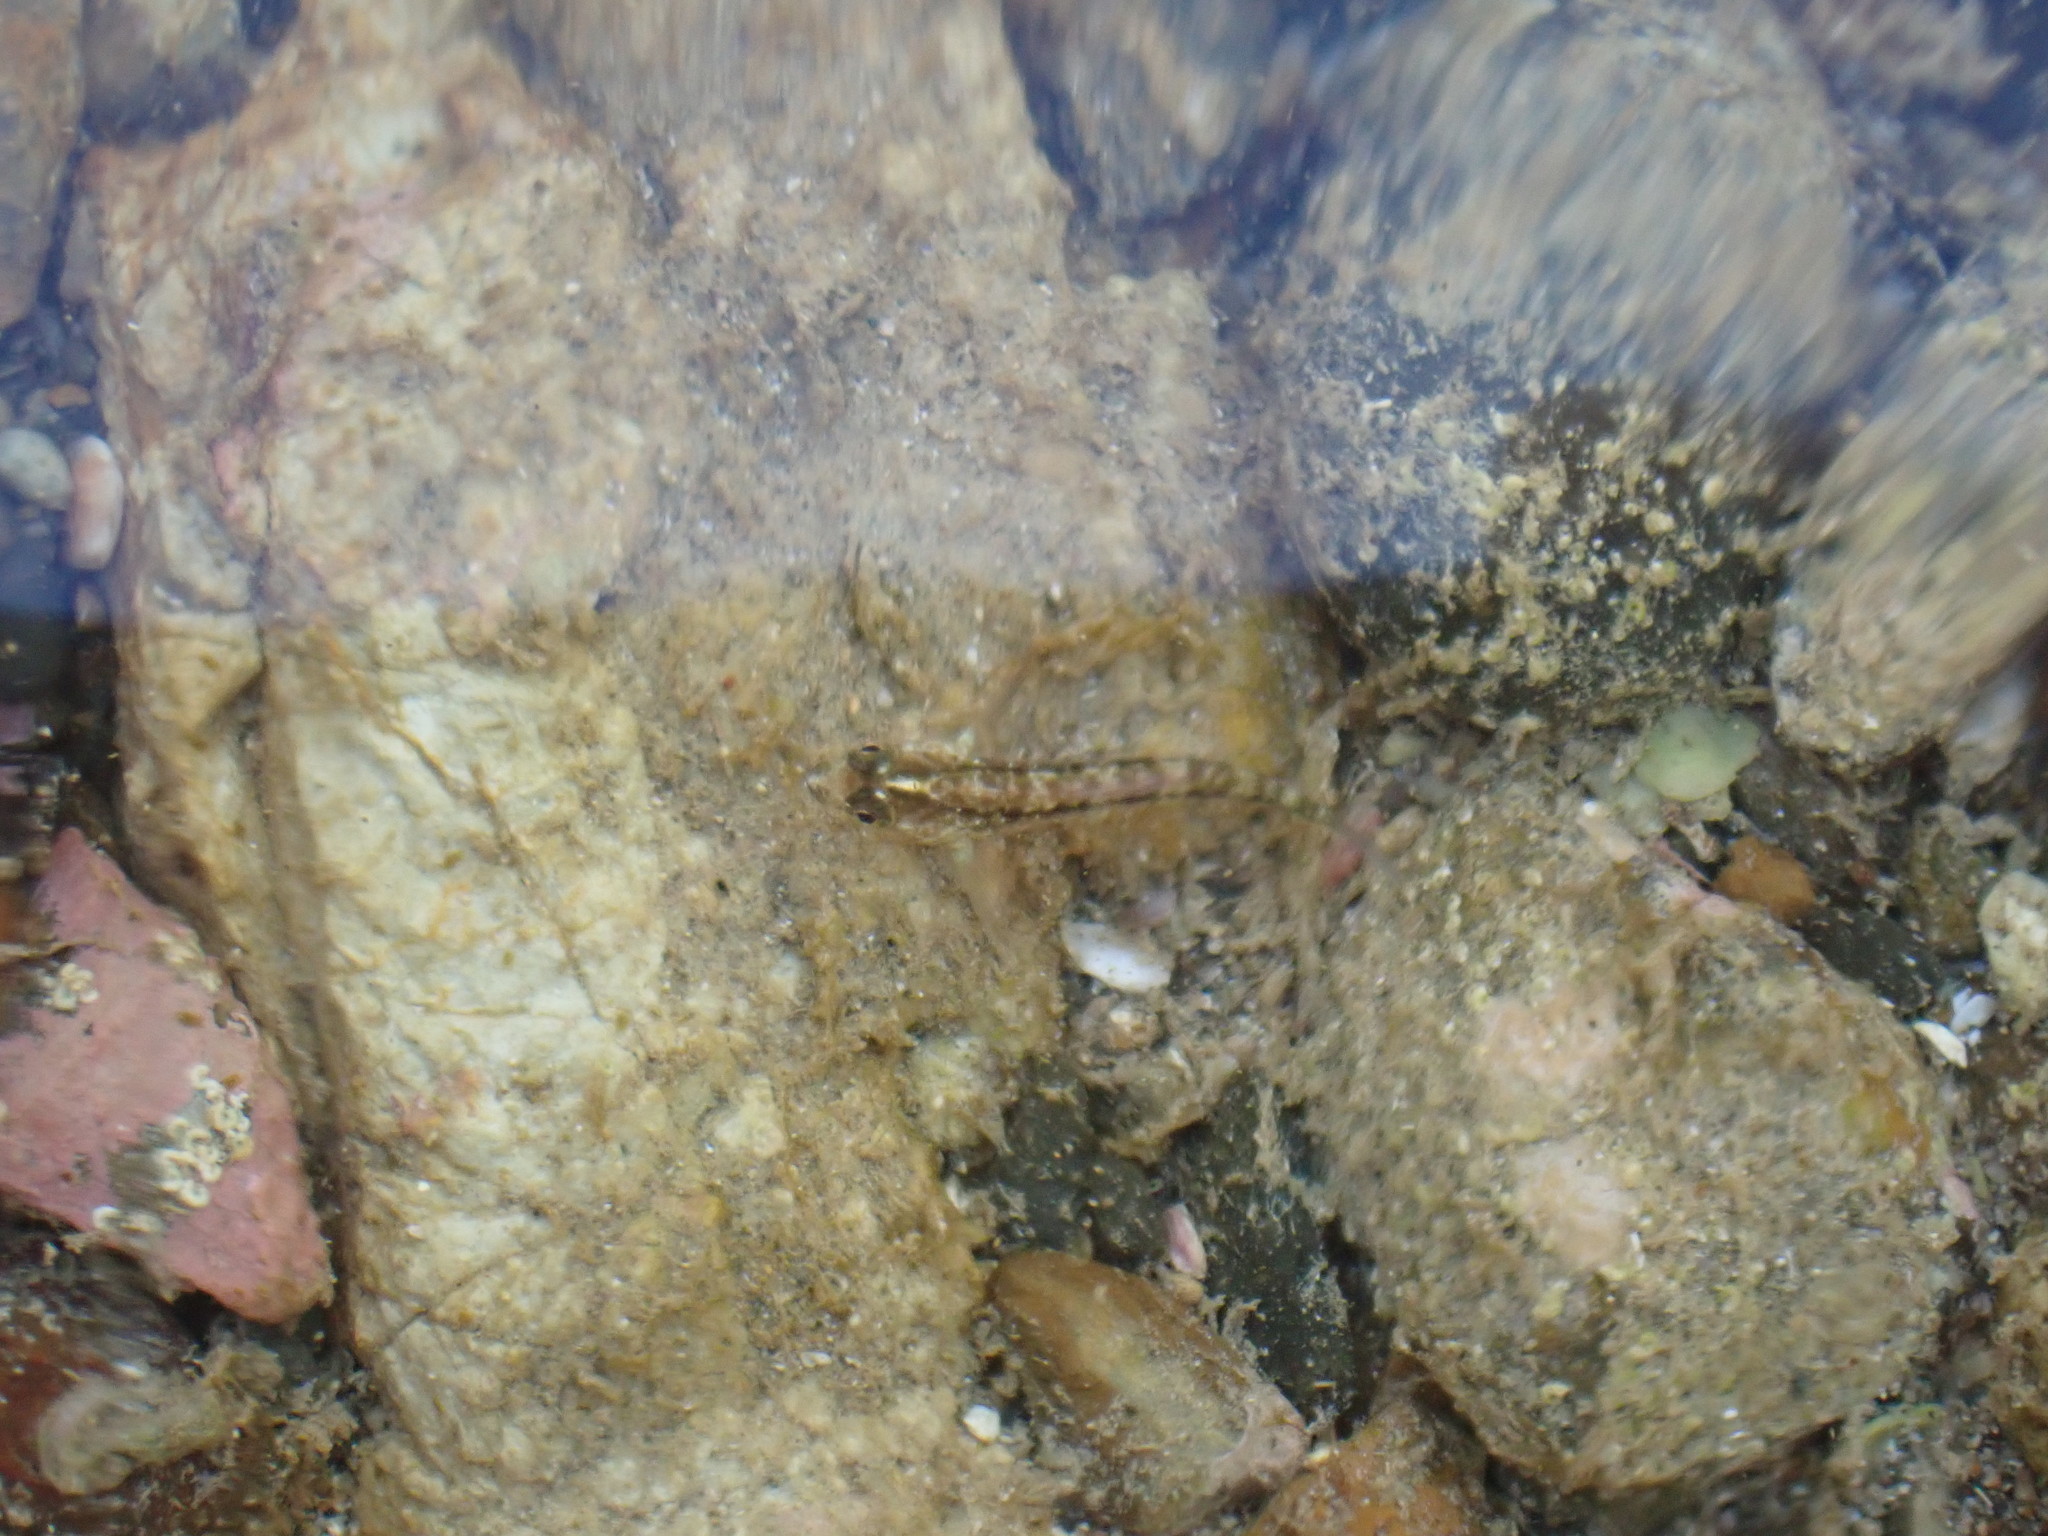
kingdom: Animalia
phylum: Chordata
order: Perciformes
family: Tripterygiidae
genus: Forsterygion
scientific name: Forsterygion lapillum
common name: Common triplefin
